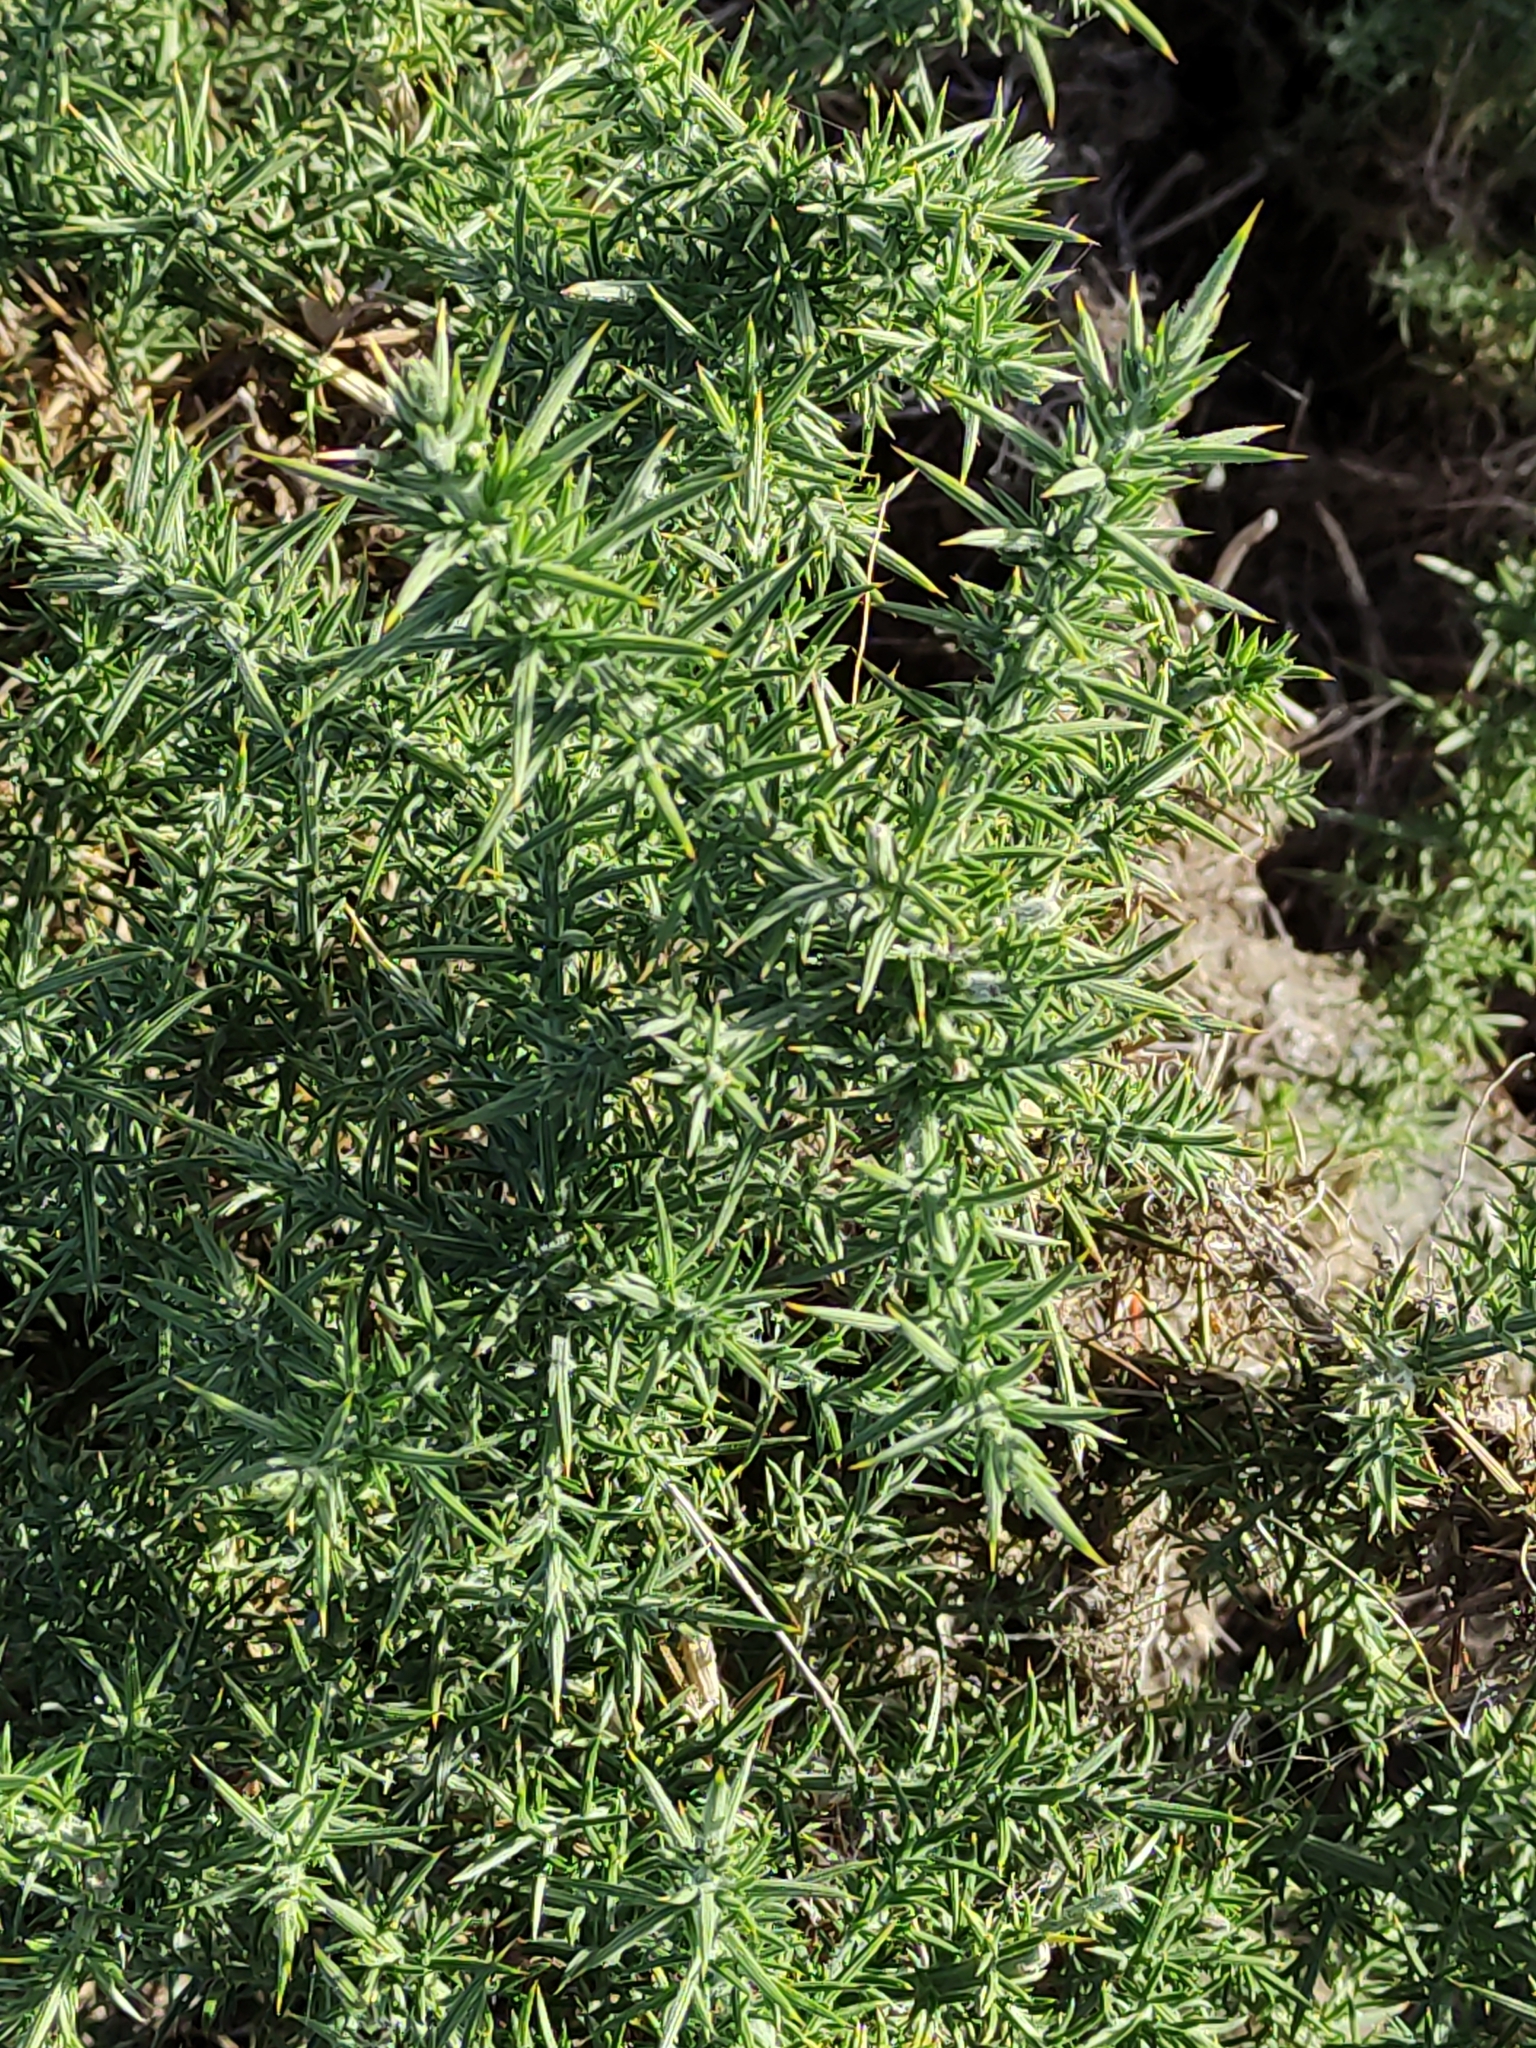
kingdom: Plantae
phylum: Tracheophyta
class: Magnoliopsida
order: Fabales
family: Fabaceae
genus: Ulex
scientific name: Ulex europaeus
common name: Common gorse
